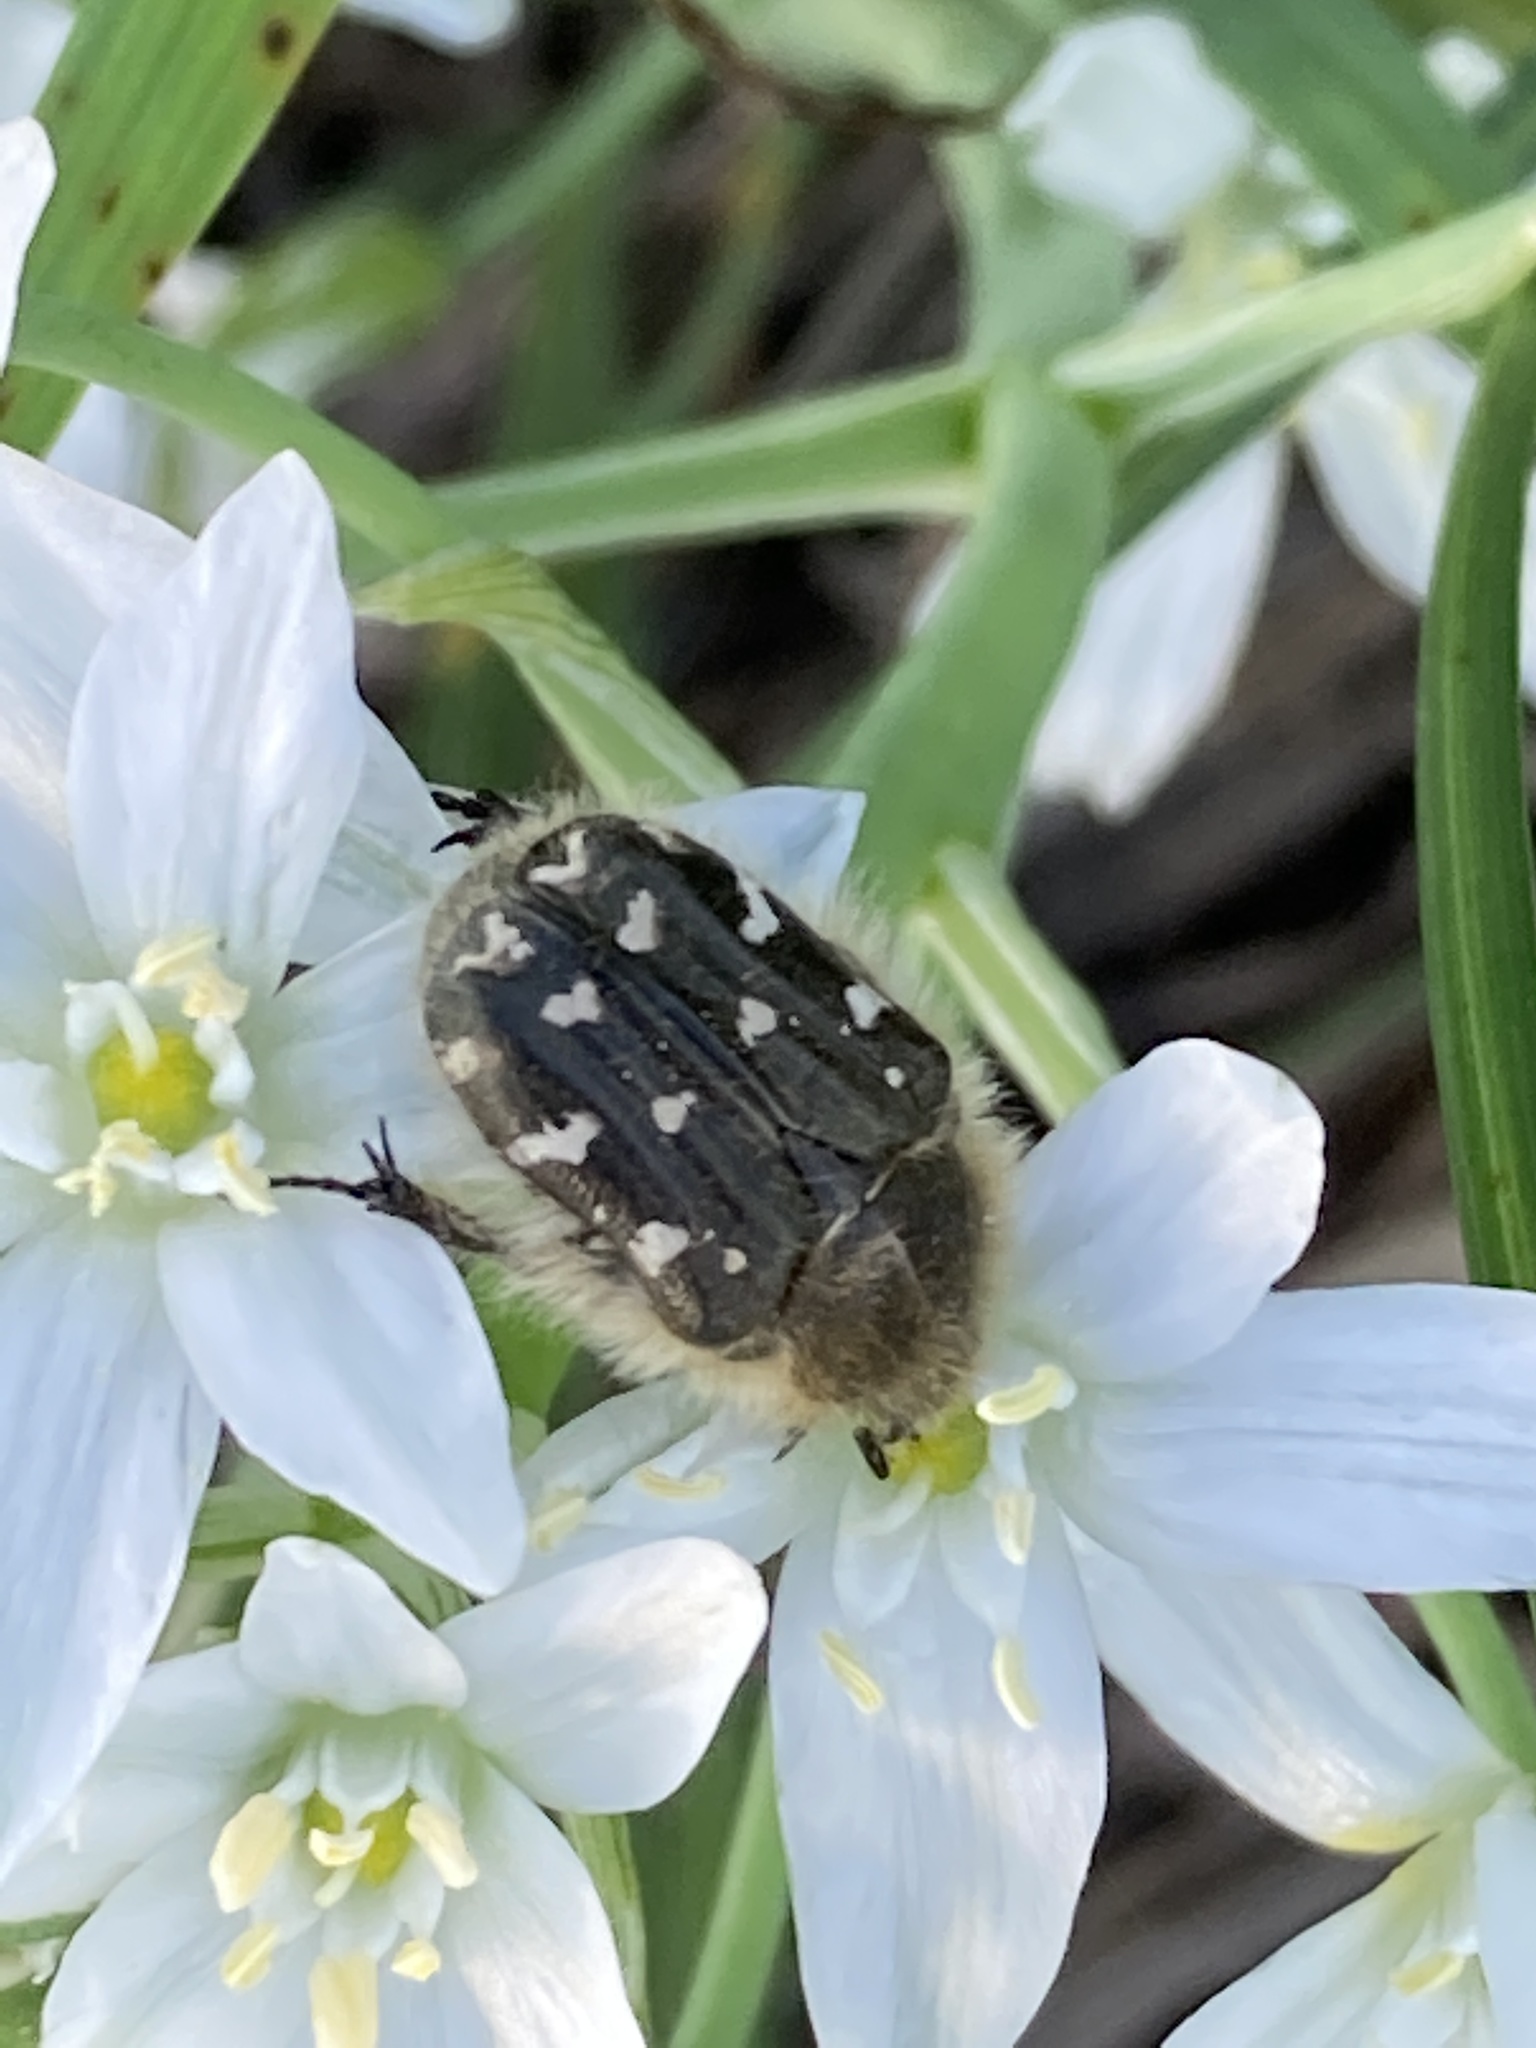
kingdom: Animalia
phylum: Arthropoda
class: Insecta
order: Coleoptera
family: Scarabaeidae
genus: Tropinota
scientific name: Tropinota hirta
